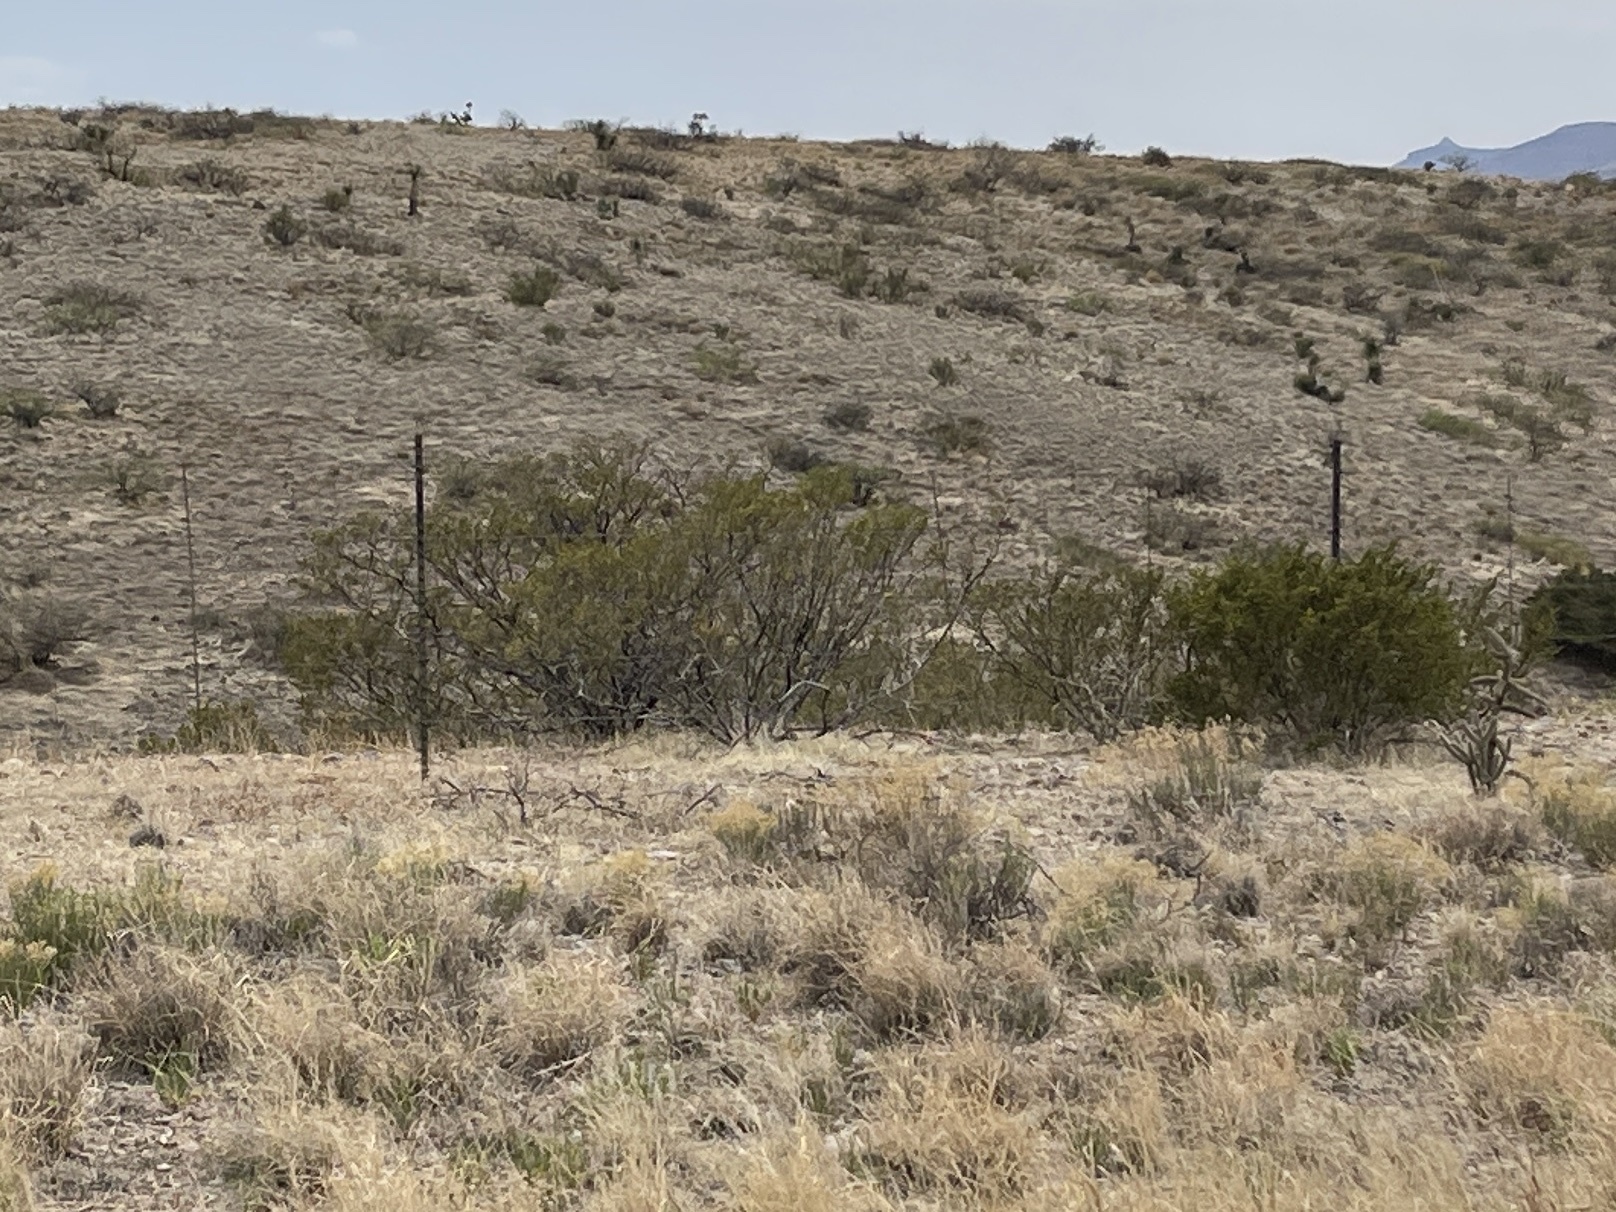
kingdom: Plantae
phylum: Tracheophyta
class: Magnoliopsida
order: Zygophyllales
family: Zygophyllaceae
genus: Larrea
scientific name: Larrea tridentata
